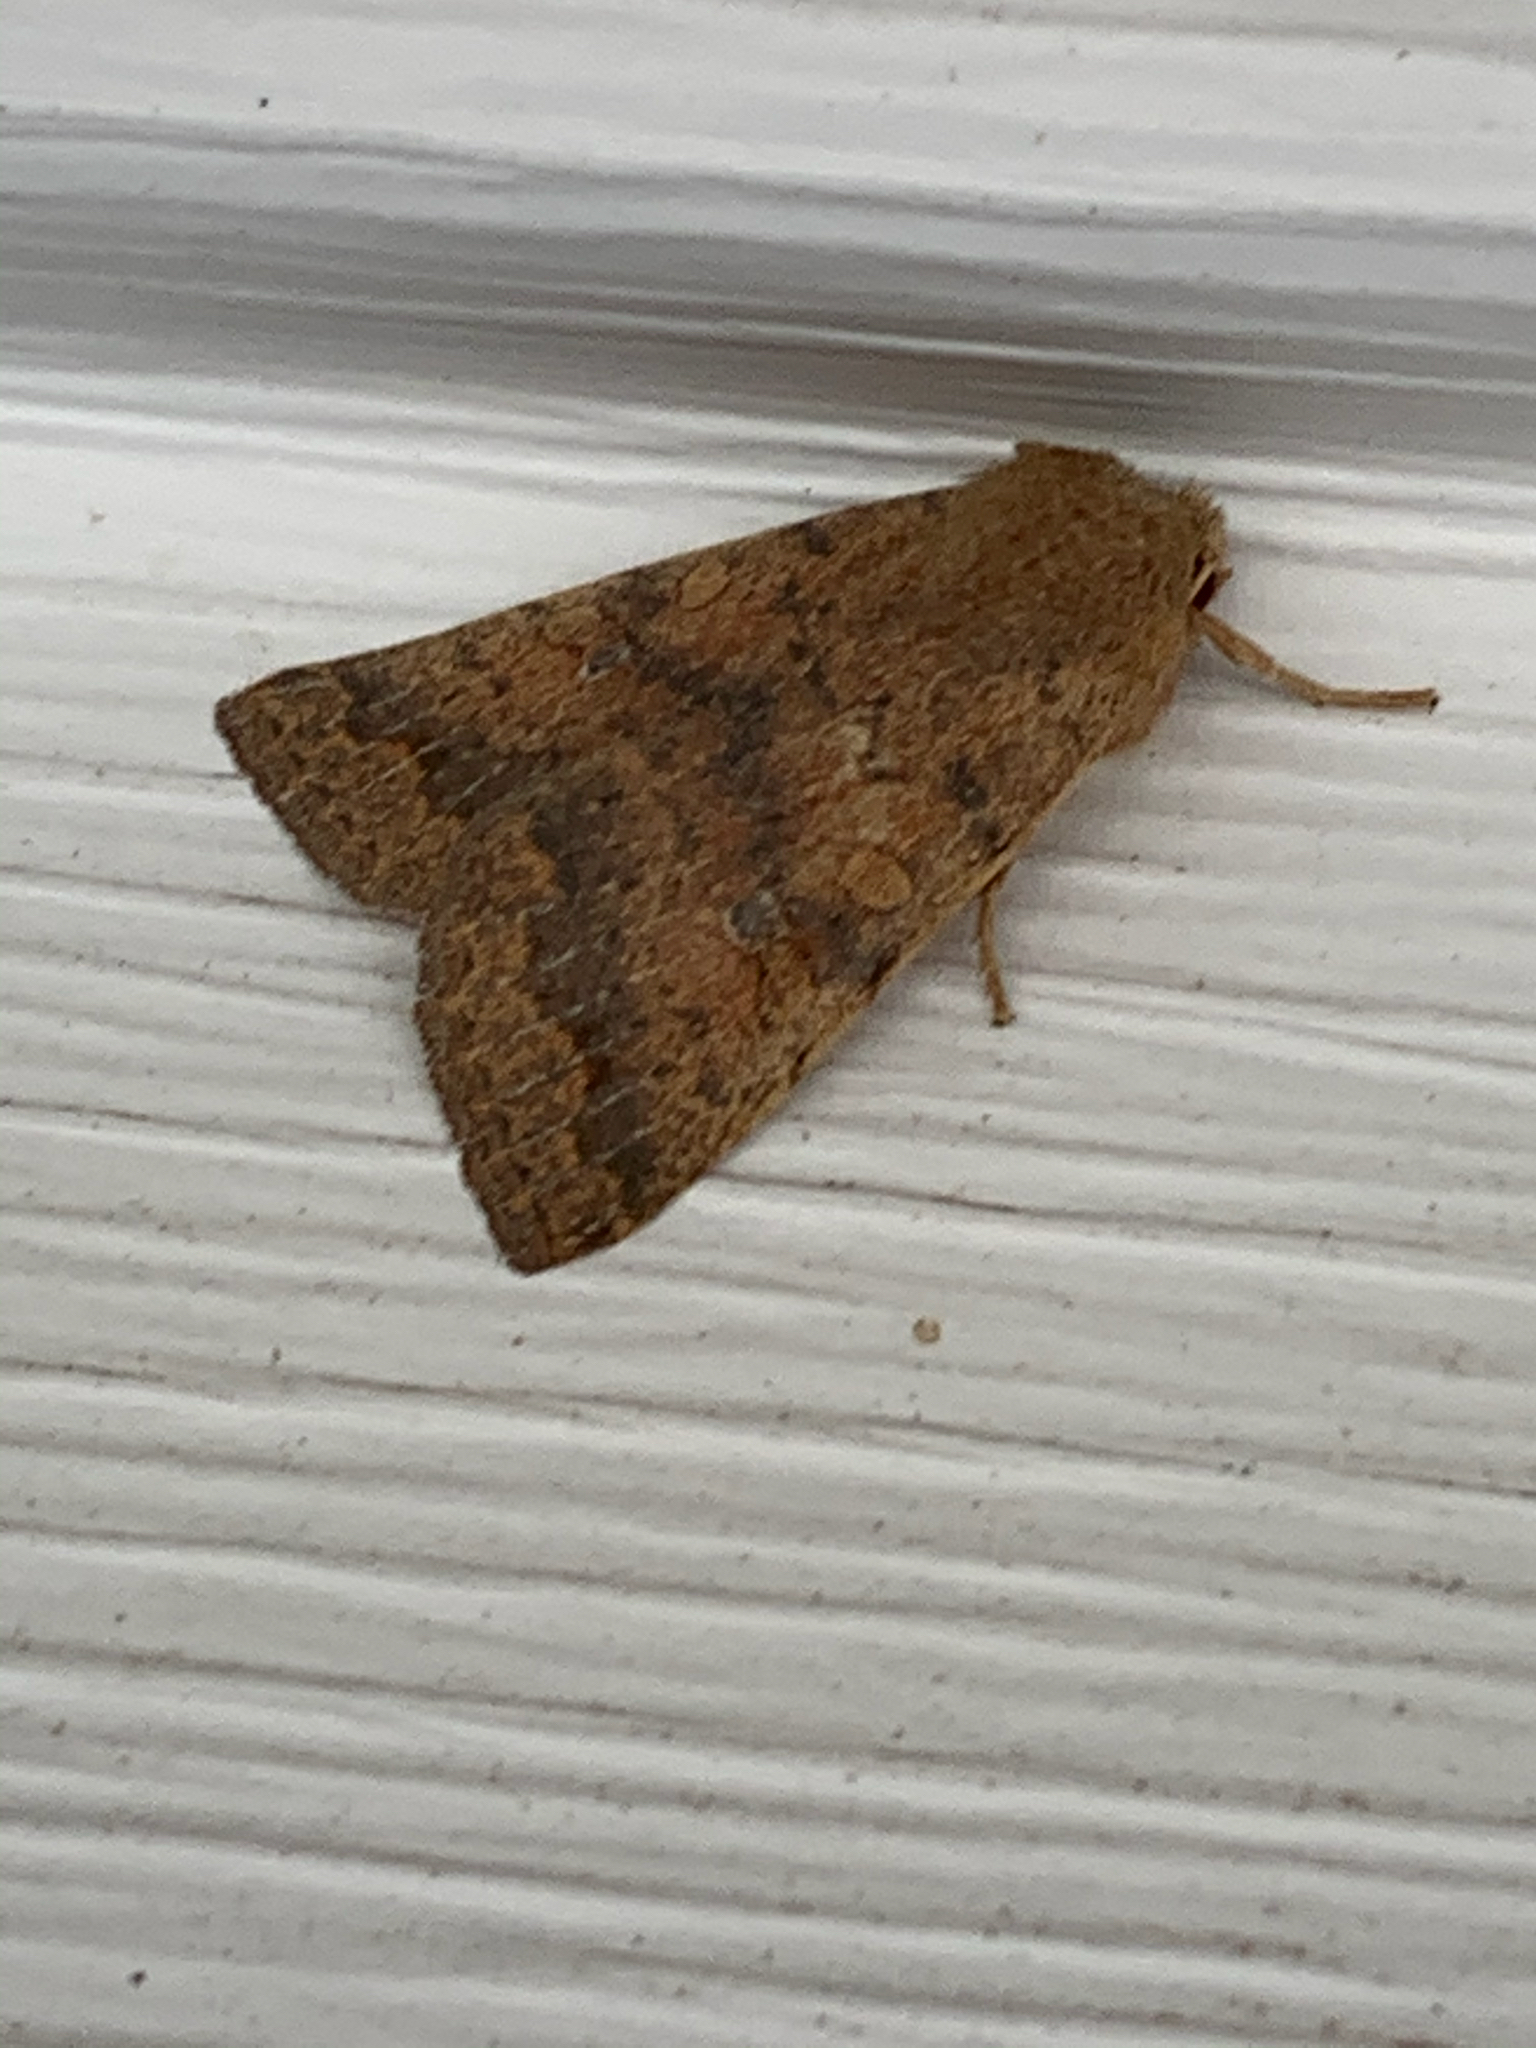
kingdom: Animalia
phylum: Arthropoda
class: Insecta
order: Lepidoptera
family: Noctuidae
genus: Agrochola
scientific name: Agrochola bicolorago
